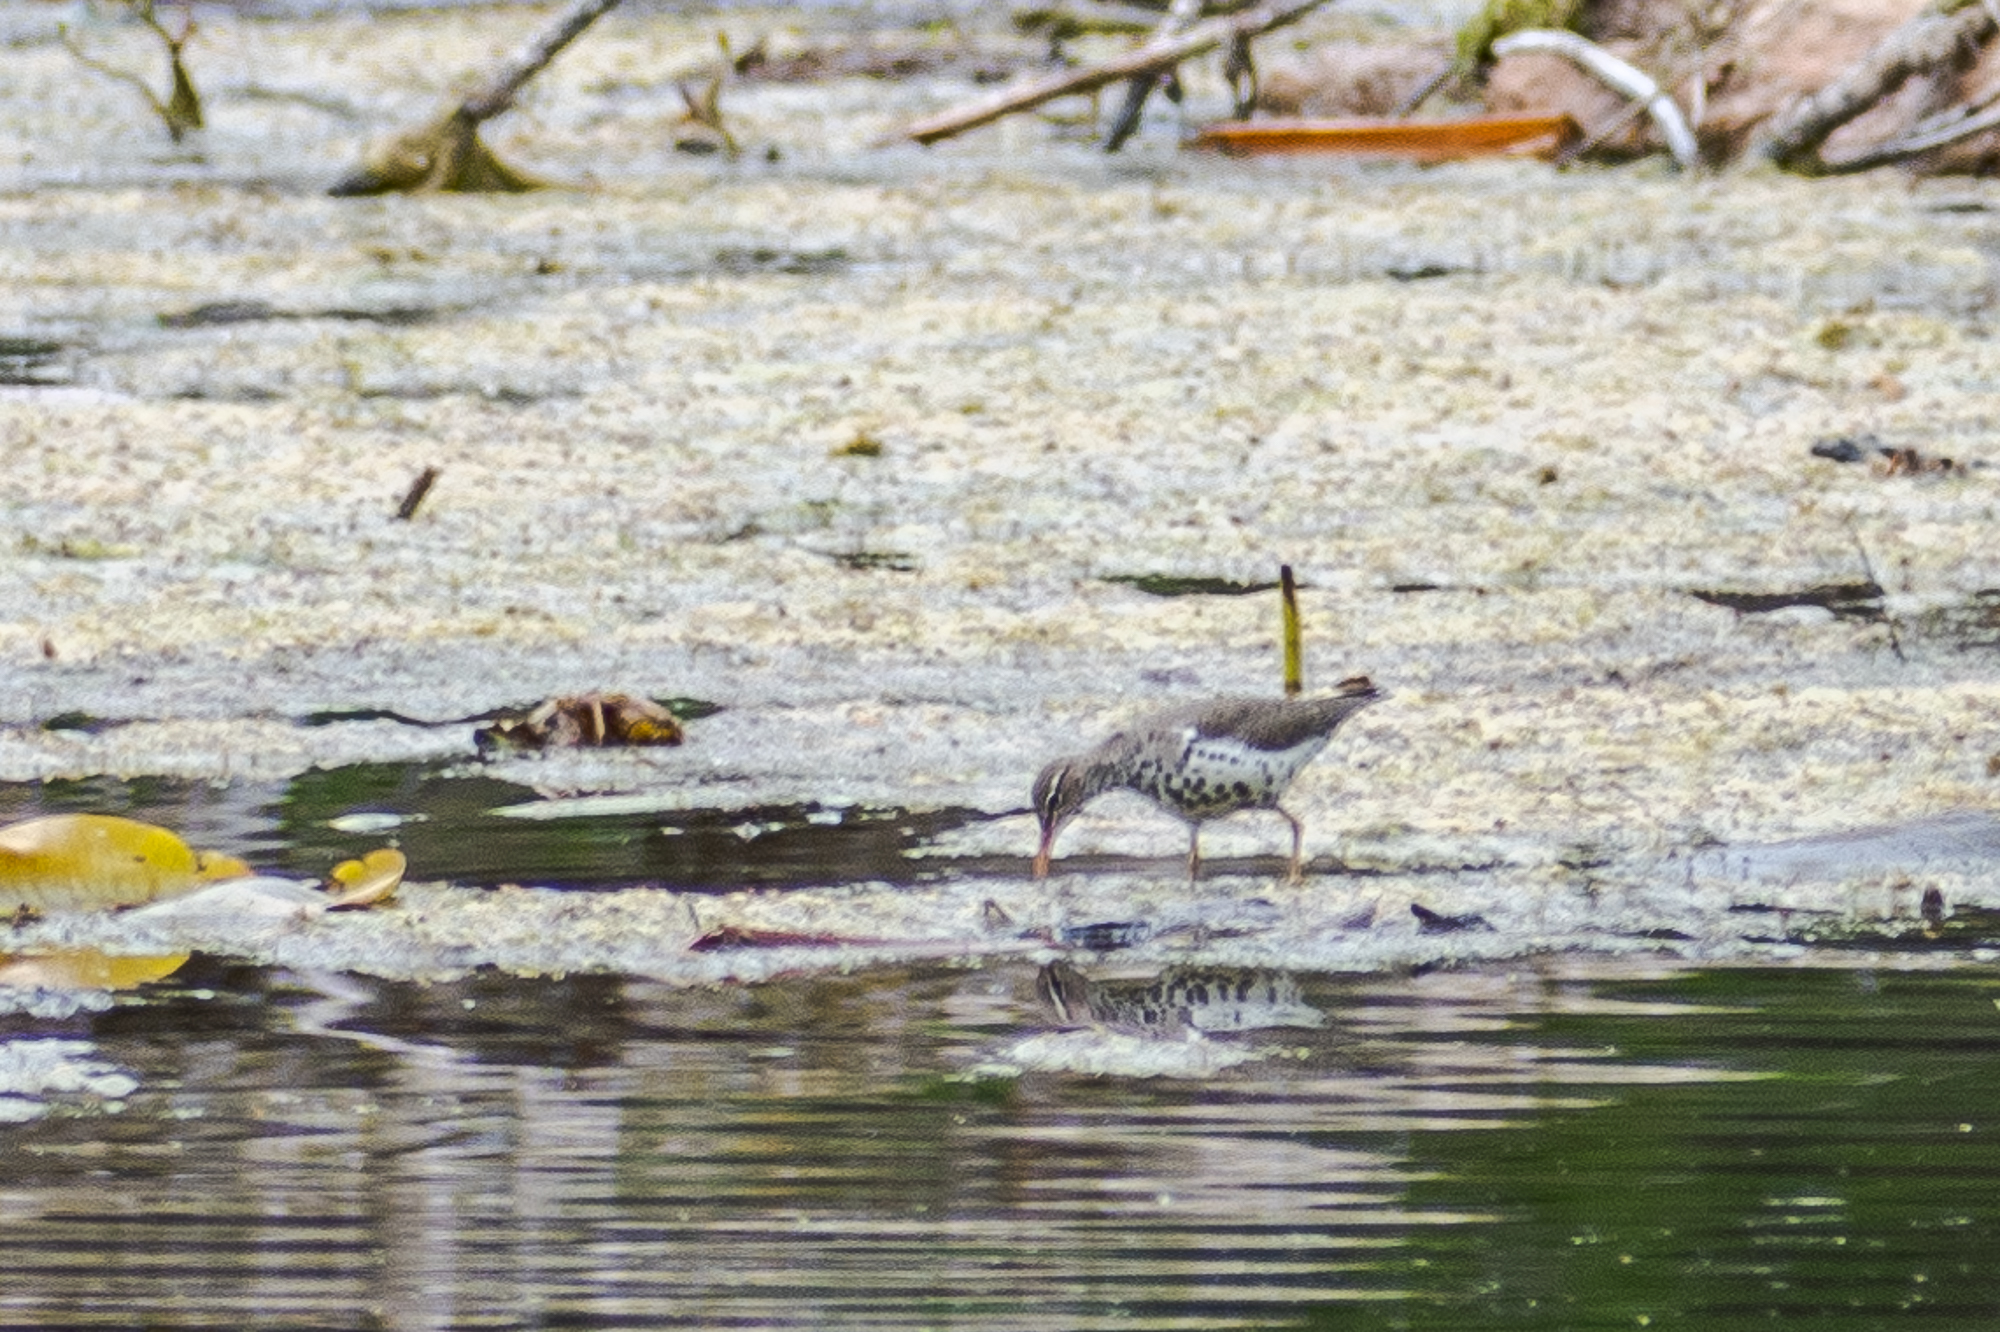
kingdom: Animalia
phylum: Chordata
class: Aves
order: Charadriiformes
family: Scolopacidae
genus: Actitis
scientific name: Actitis macularius
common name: Spotted sandpiper
